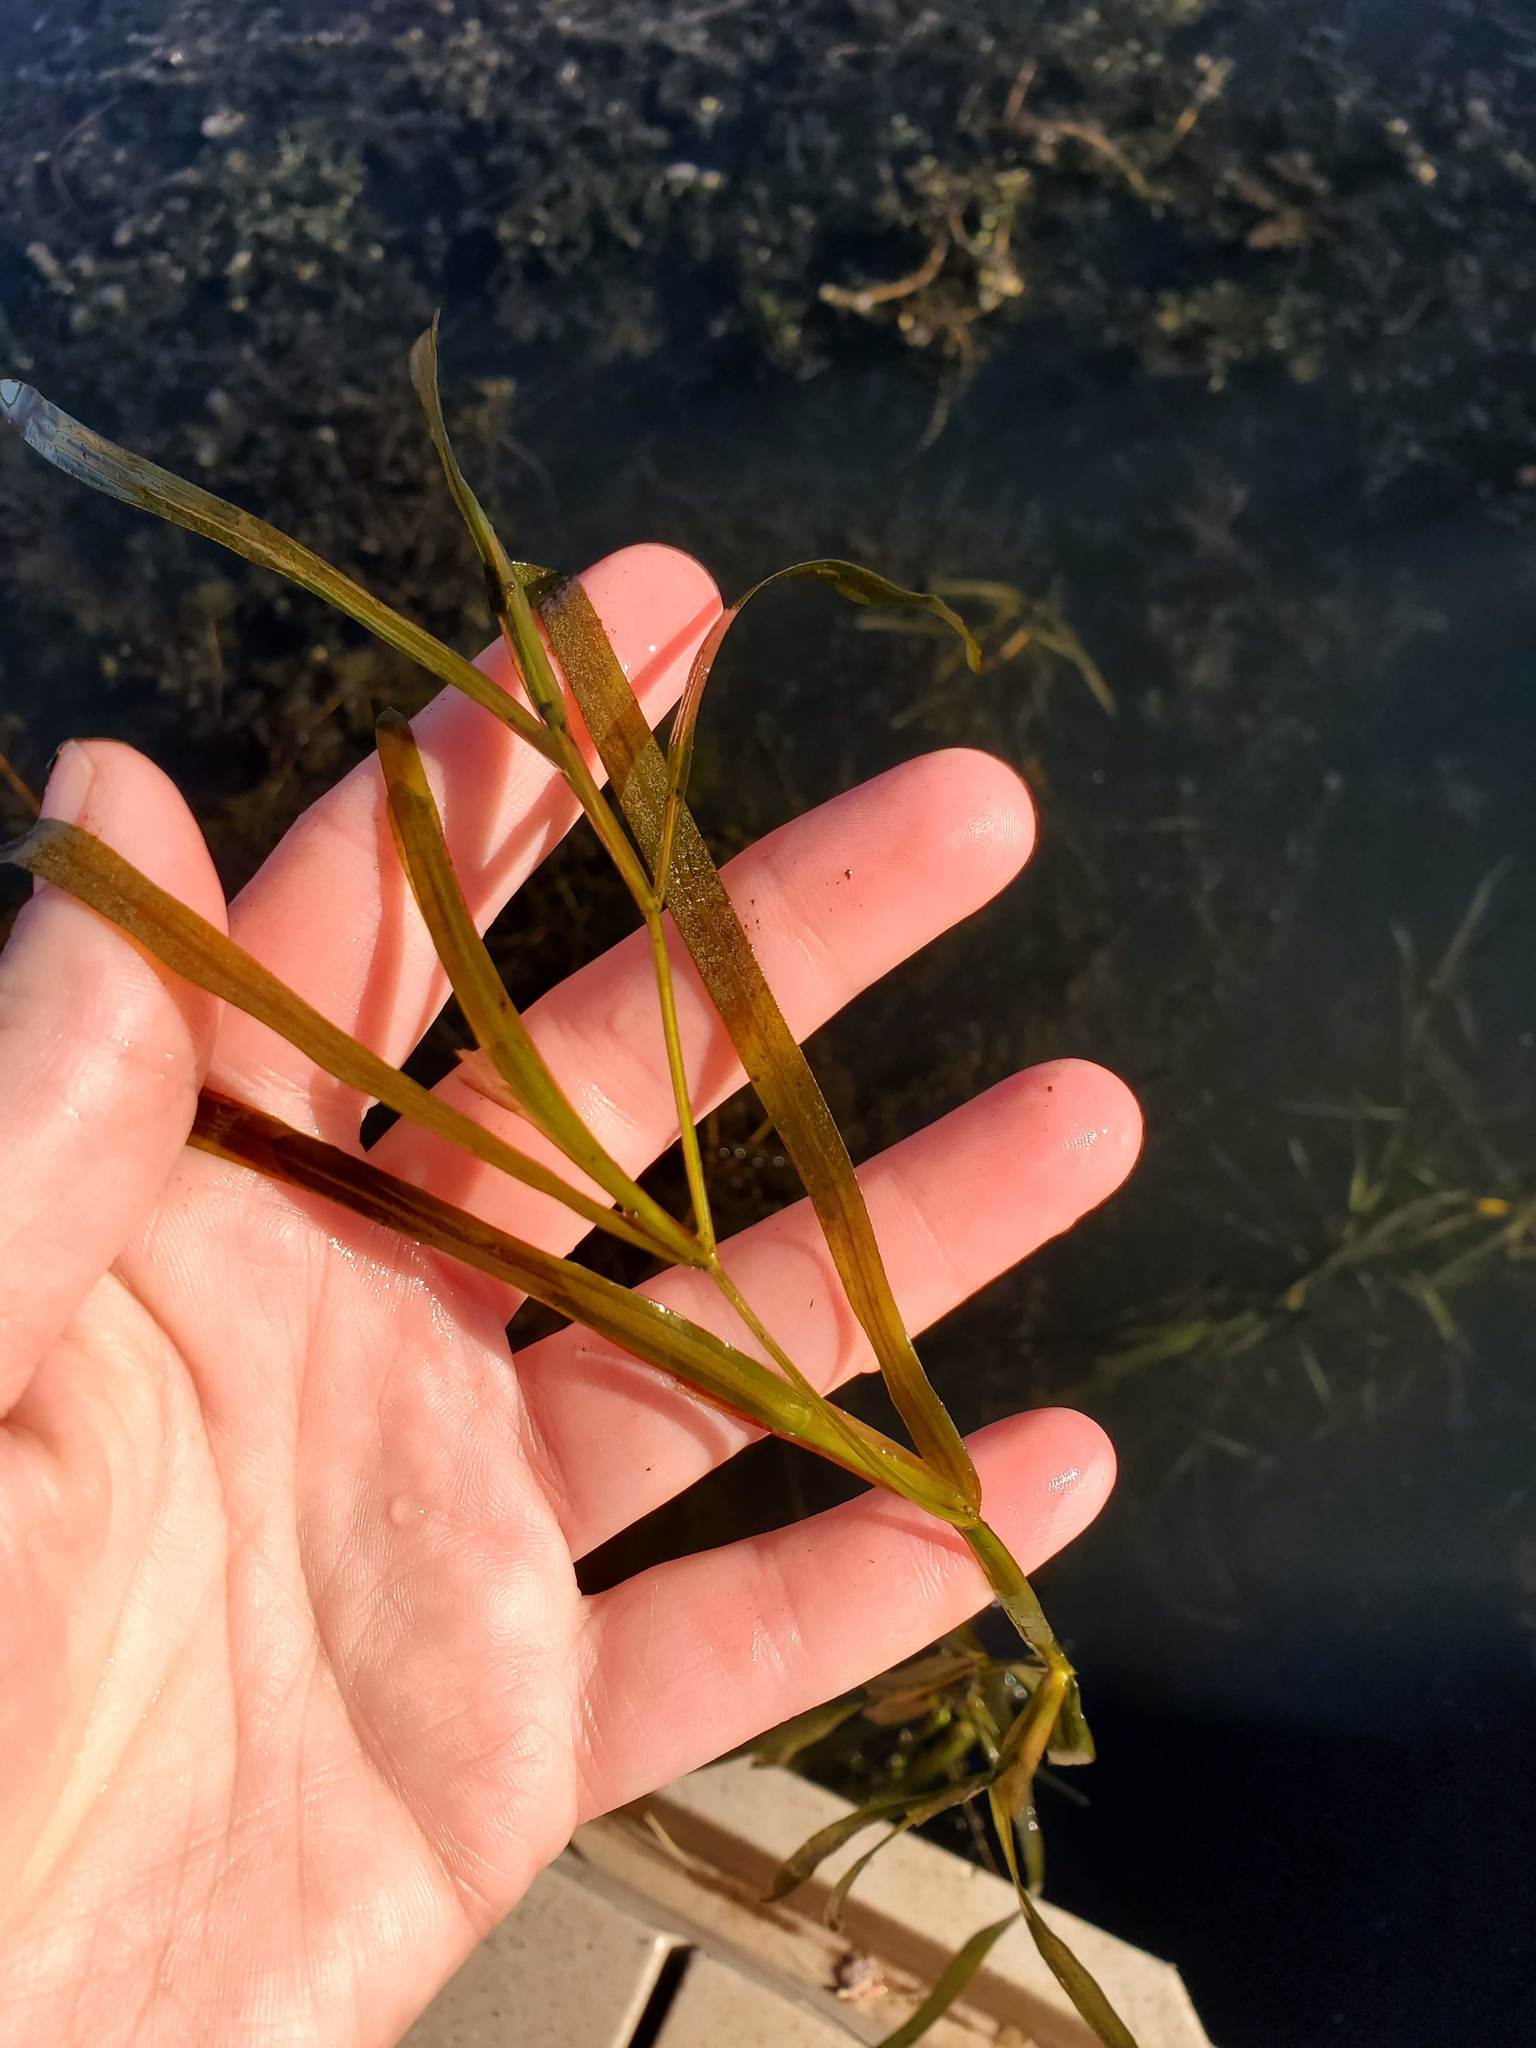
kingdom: Plantae
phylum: Tracheophyta
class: Liliopsida
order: Alismatales
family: Potamogetonaceae
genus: Potamogeton
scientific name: Potamogeton zosteriformis
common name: Eelgrass pondweed
